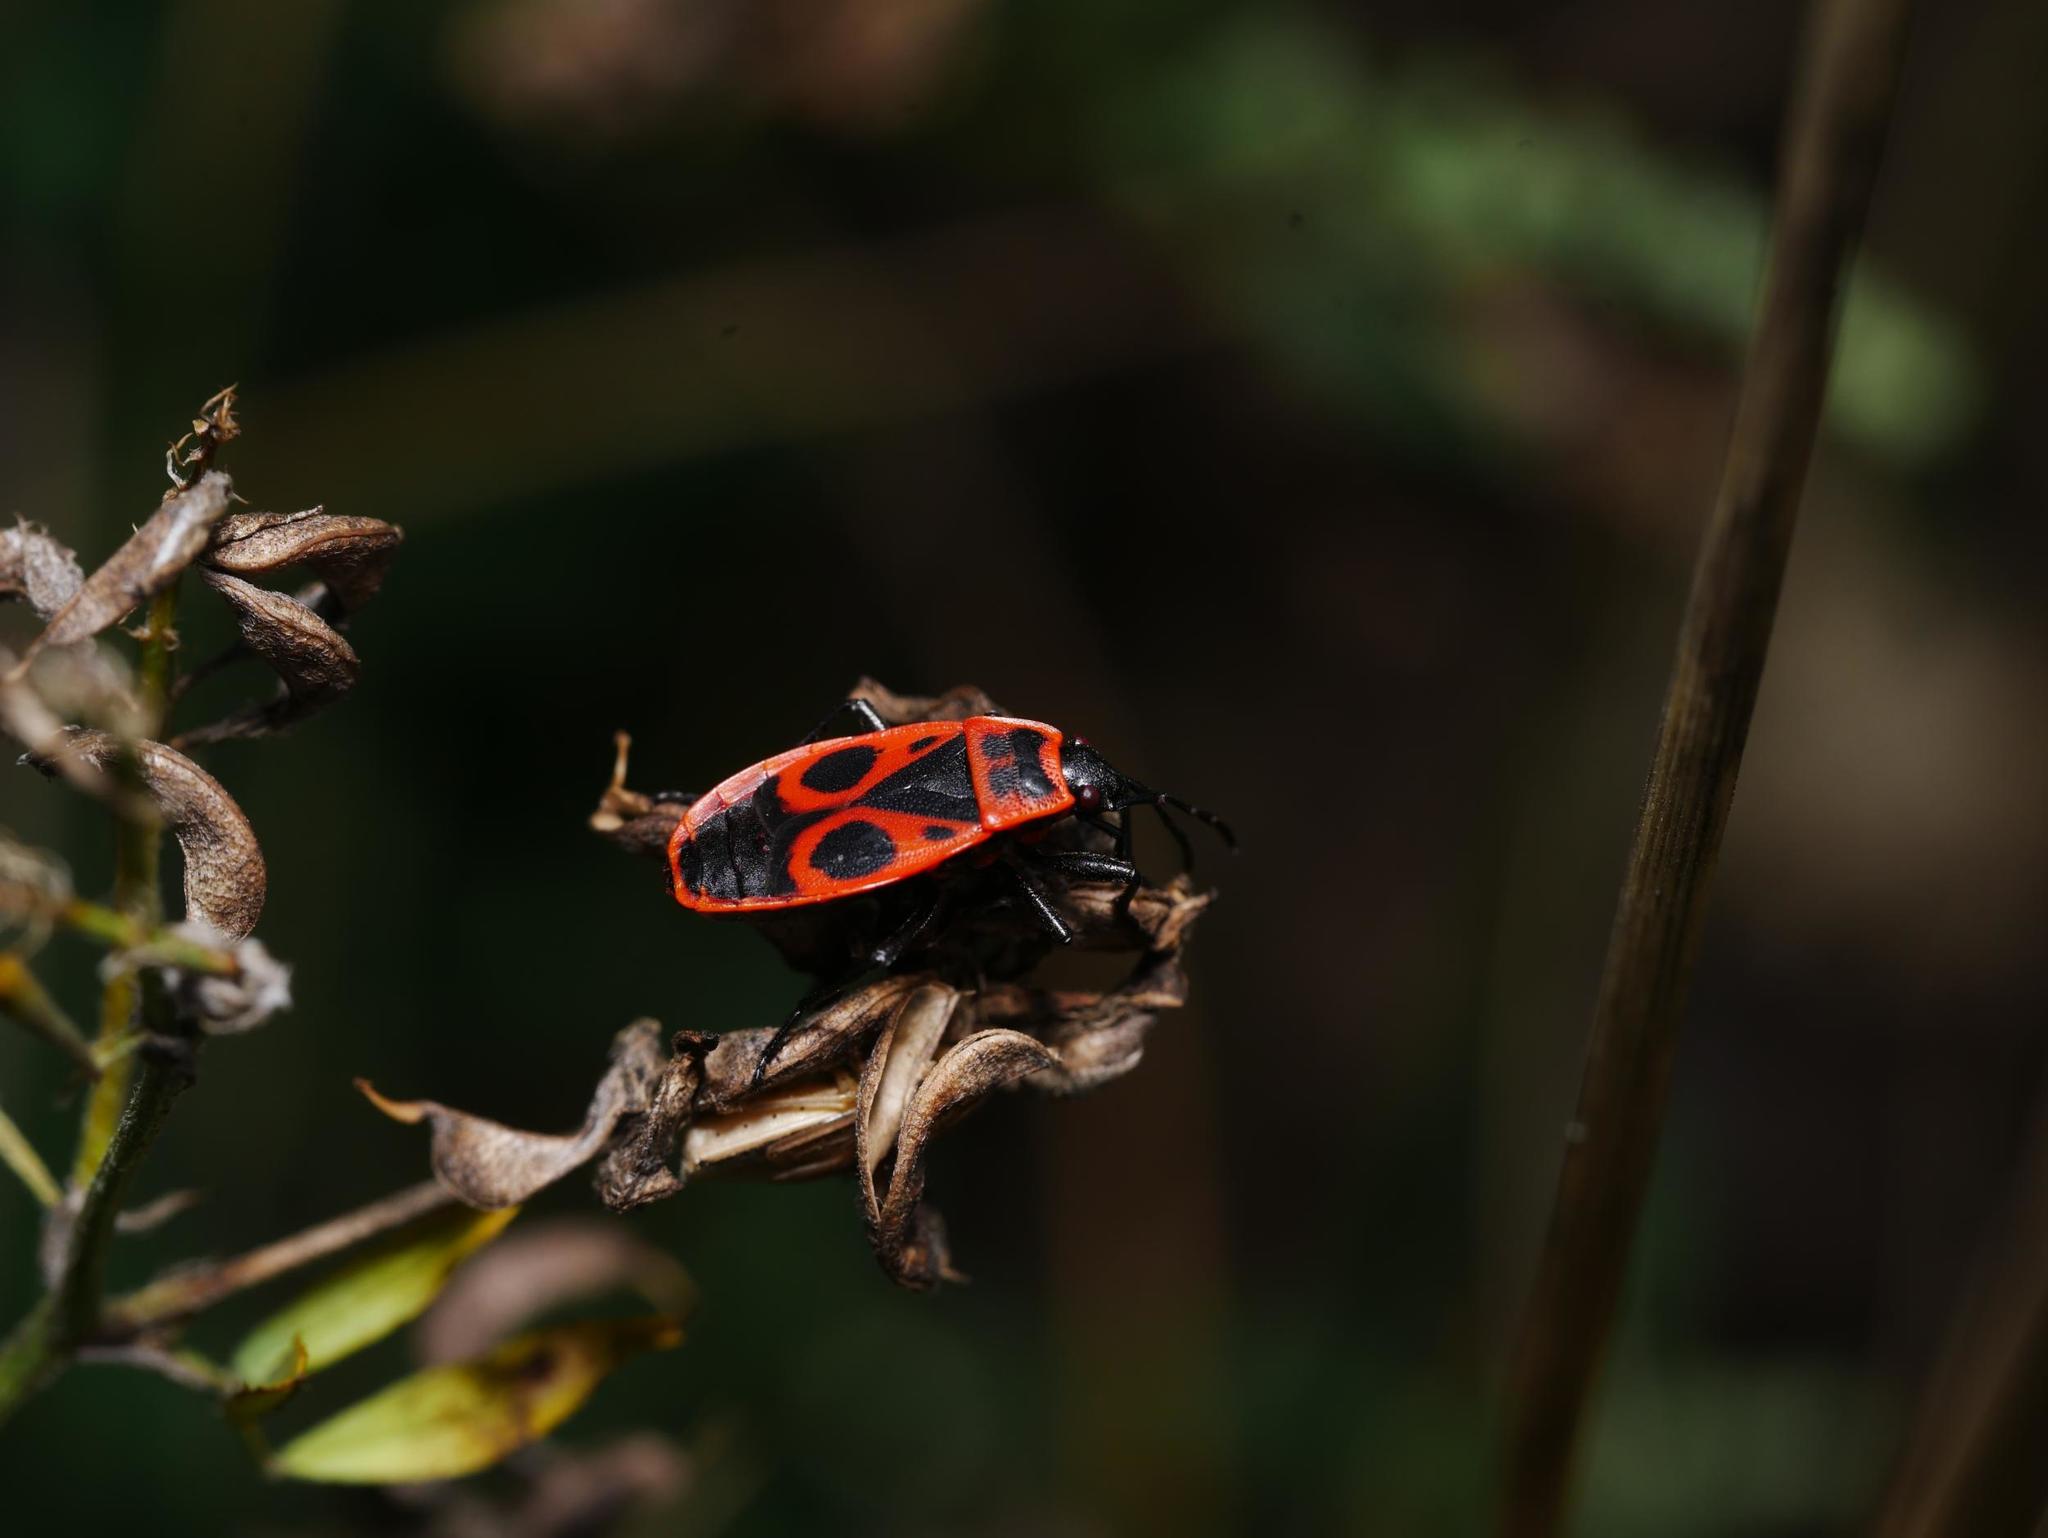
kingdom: Animalia
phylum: Arthropoda
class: Insecta
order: Hemiptera
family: Pyrrhocoridae
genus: Pyrrhocoris
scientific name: Pyrrhocoris apterus
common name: Firebug
